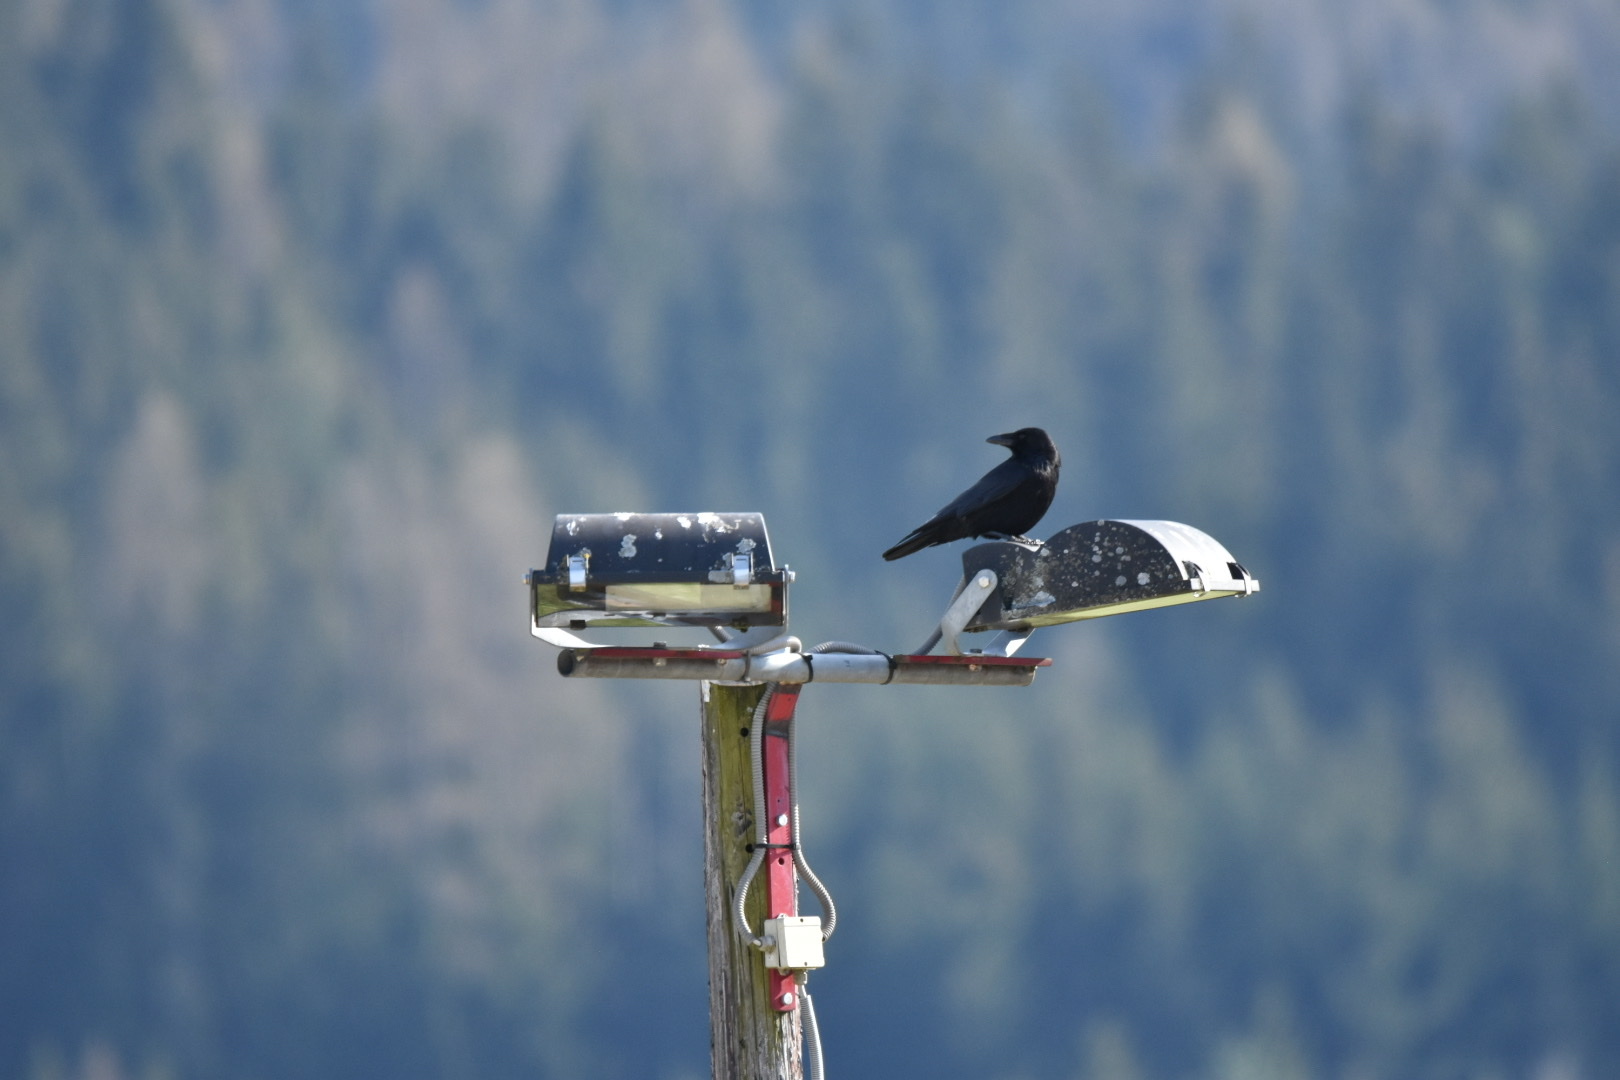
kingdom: Animalia
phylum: Chordata
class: Aves
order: Passeriformes
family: Corvidae
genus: Corvus
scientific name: Corvus corone
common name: Carrion crow
